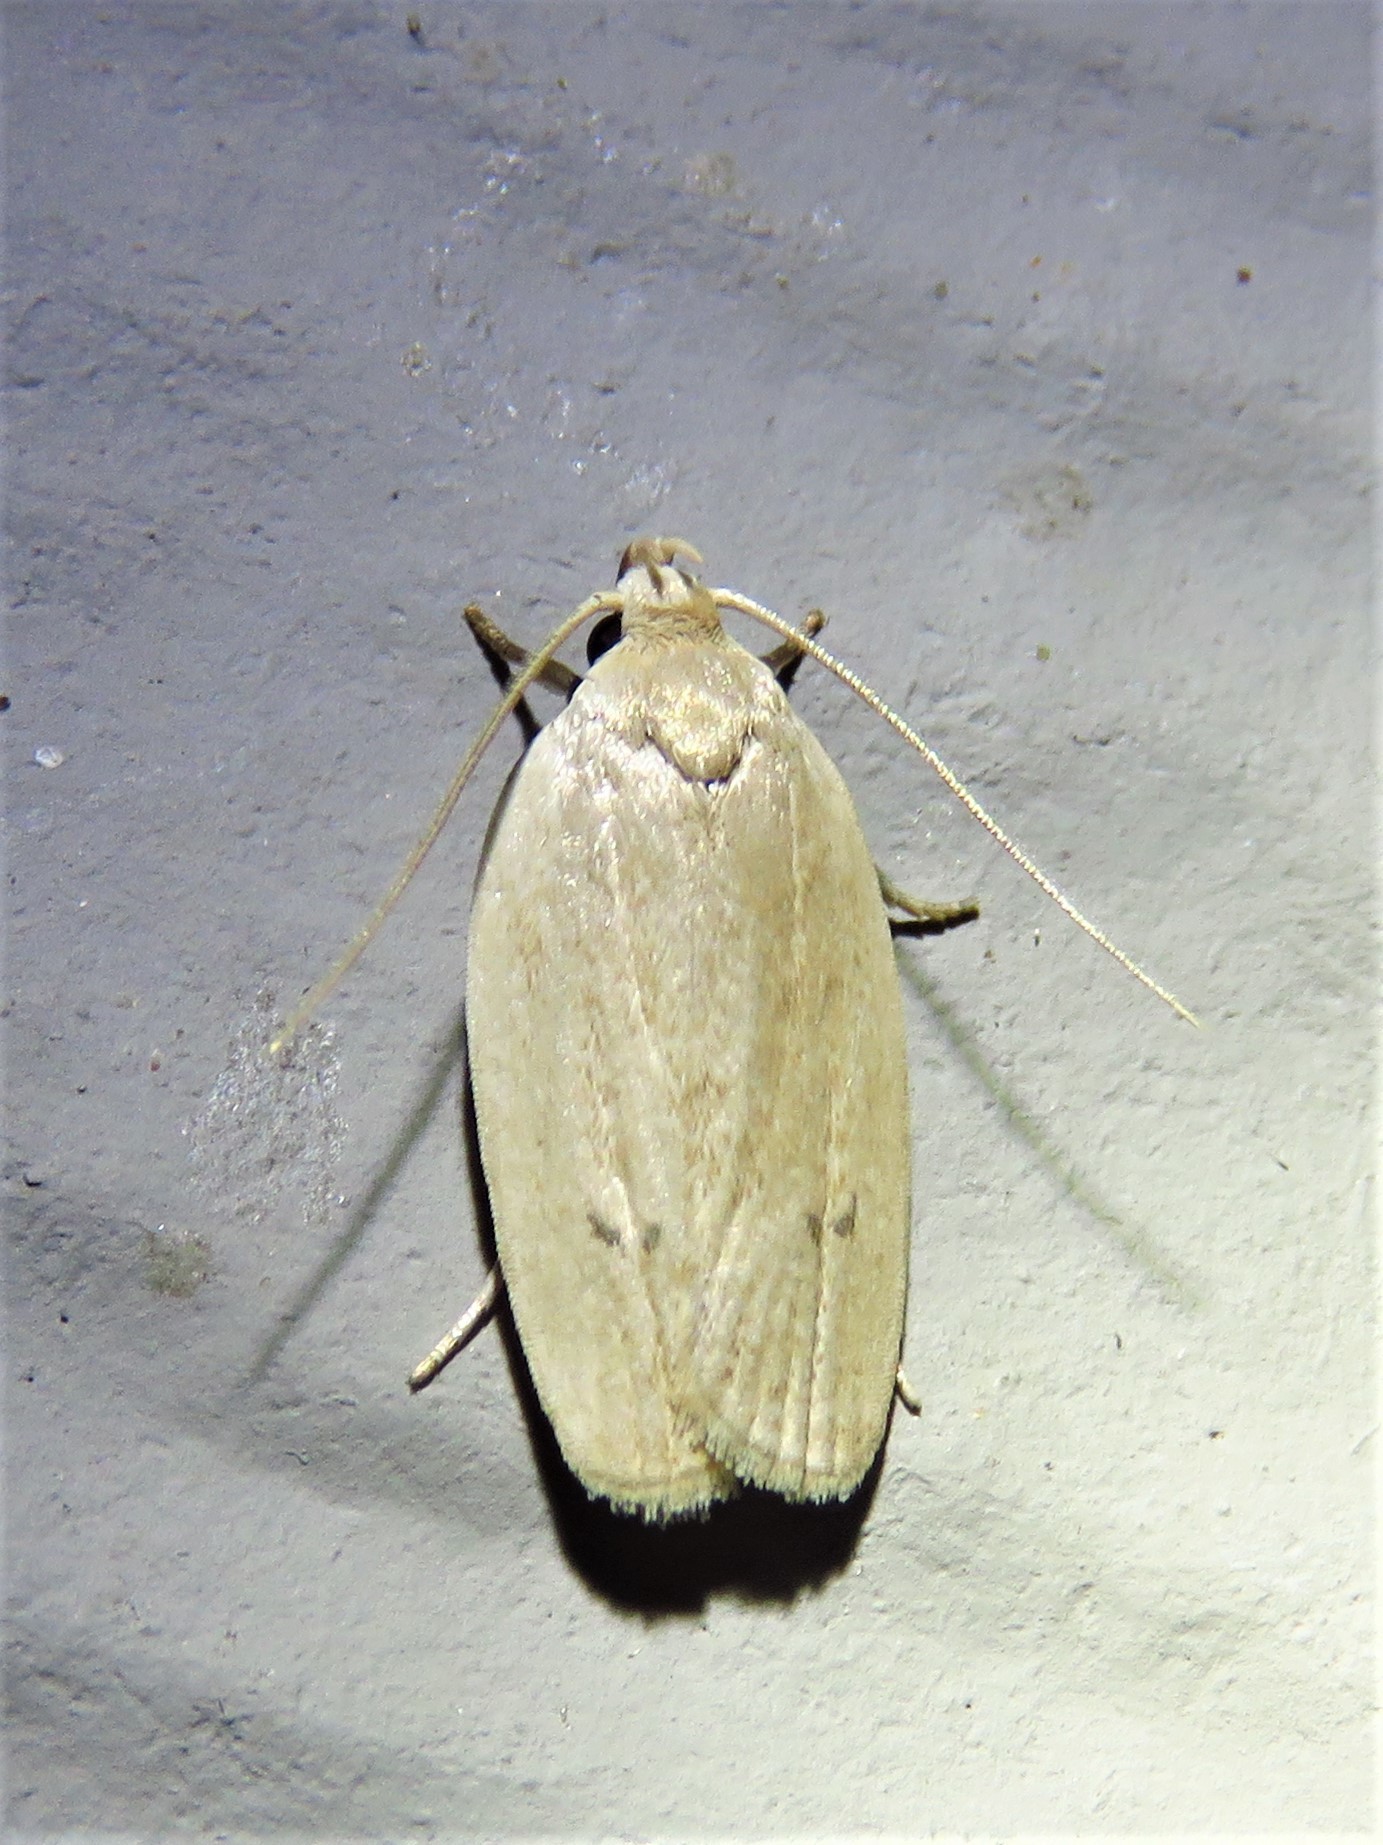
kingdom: Animalia
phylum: Arthropoda
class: Insecta
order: Lepidoptera
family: Depressariidae
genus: Antaeotricha
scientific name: Antaeotricha osseella
